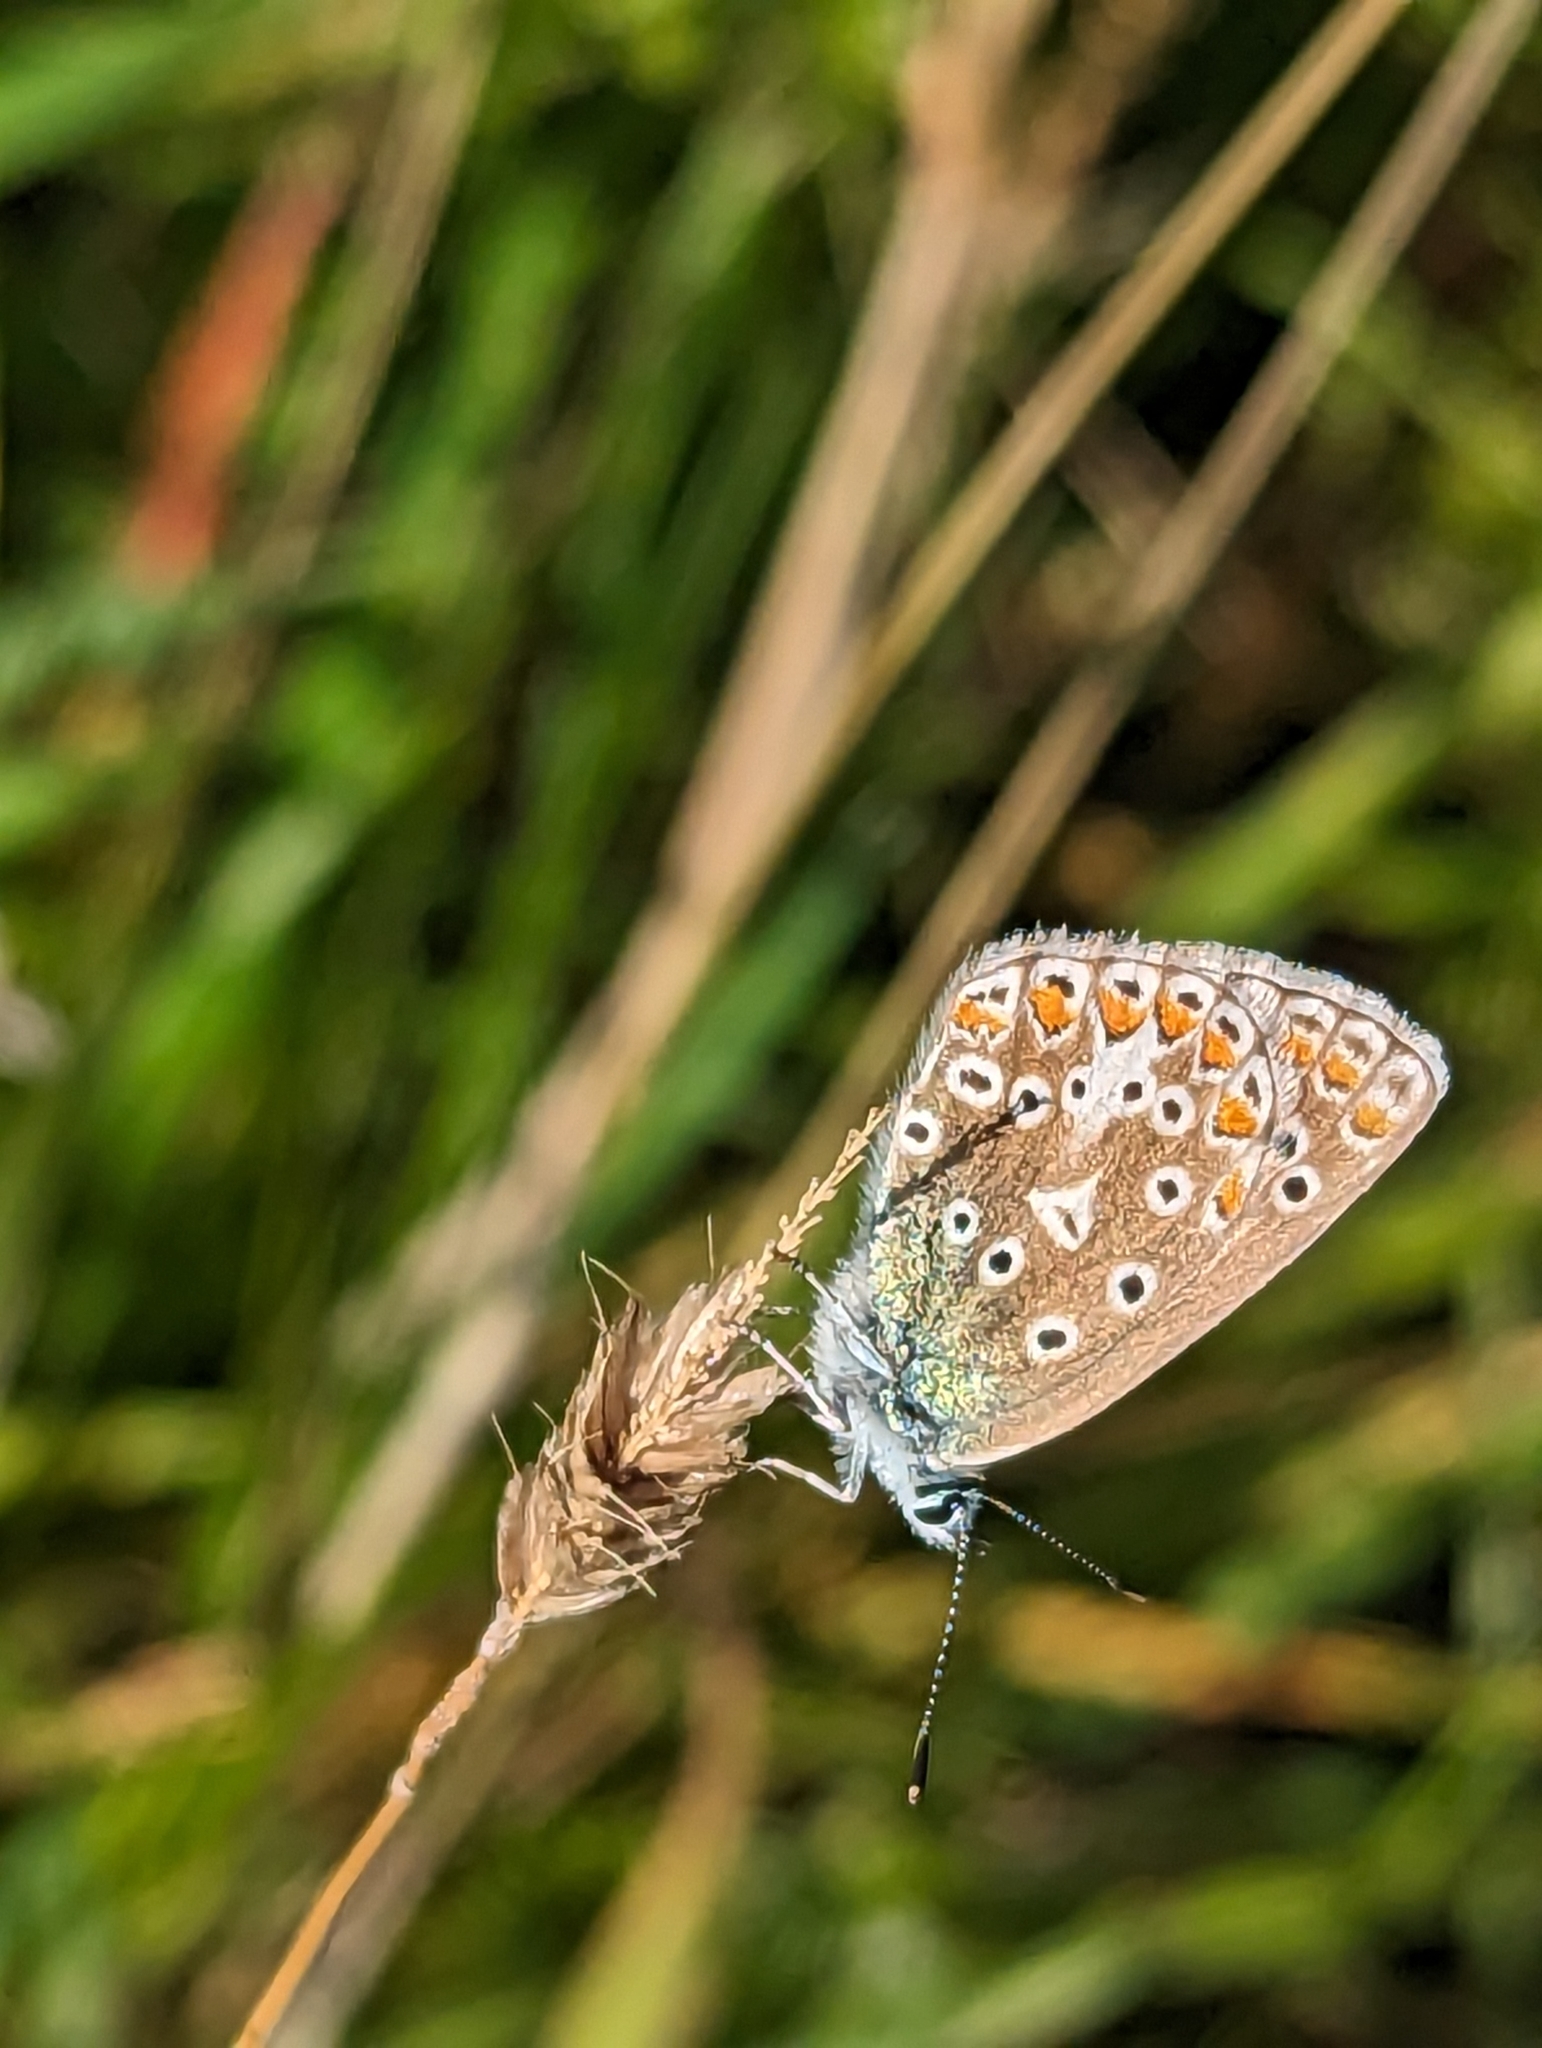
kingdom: Animalia
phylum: Arthropoda
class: Insecta
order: Lepidoptera
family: Lycaenidae
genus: Polyommatus
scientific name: Polyommatus icarus
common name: Common blue
